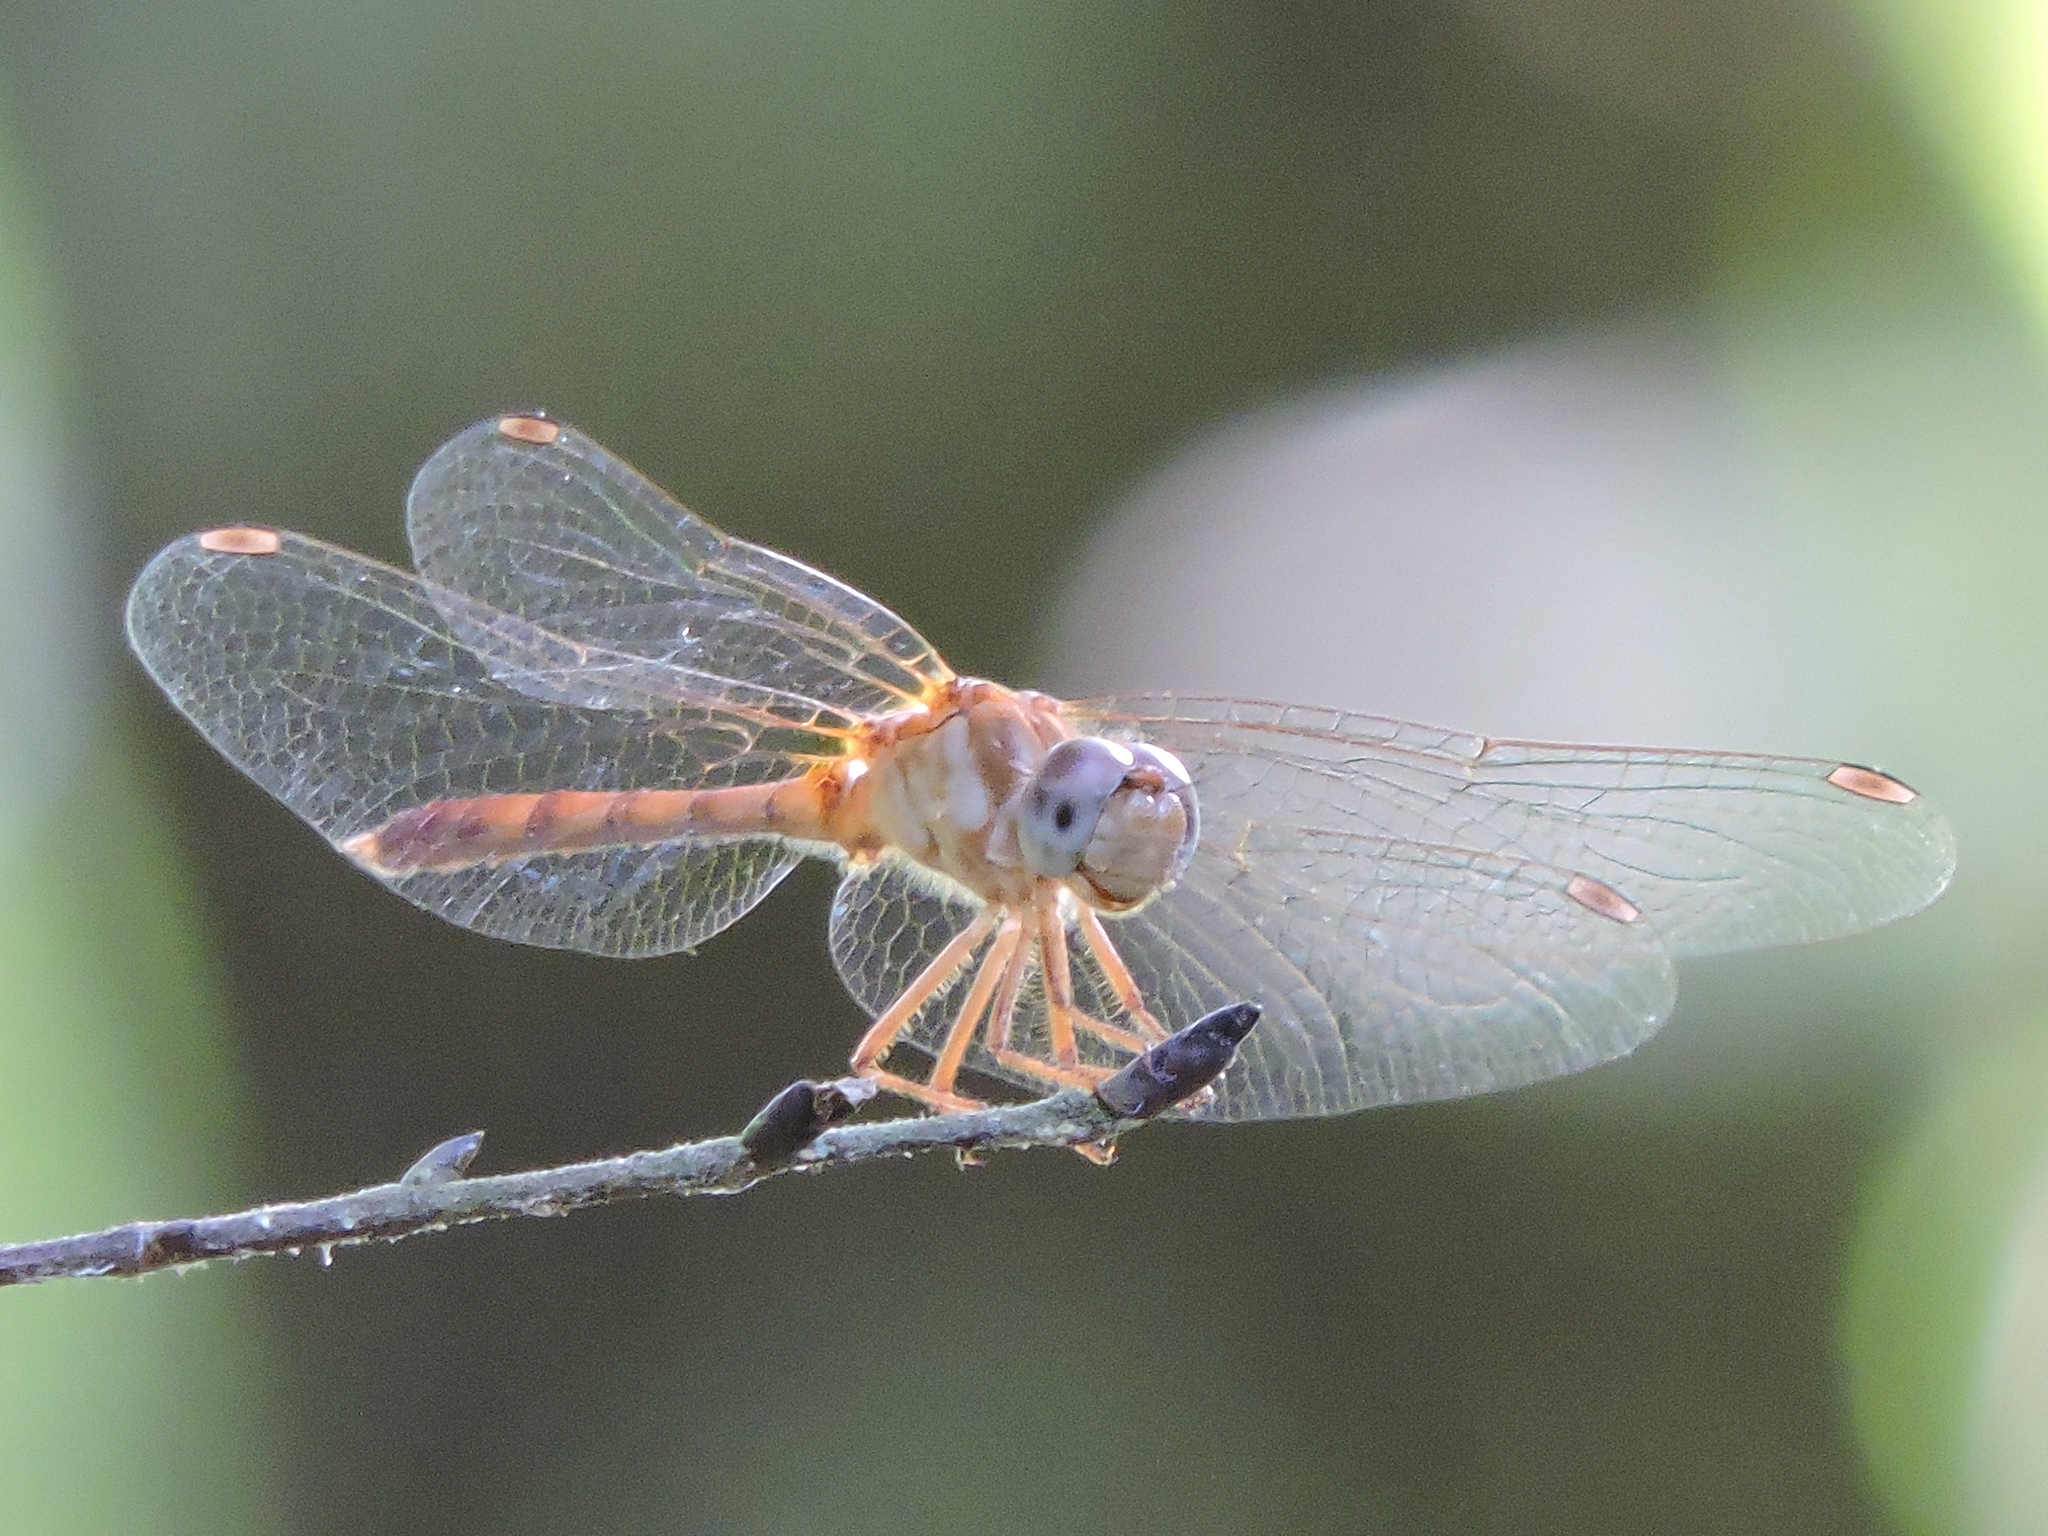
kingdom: Animalia
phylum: Arthropoda
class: Insecta
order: Odonata
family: Libellulidae
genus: Sympetrum
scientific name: Sympetrum ambiguum
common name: Blue-faced meadowhawk
